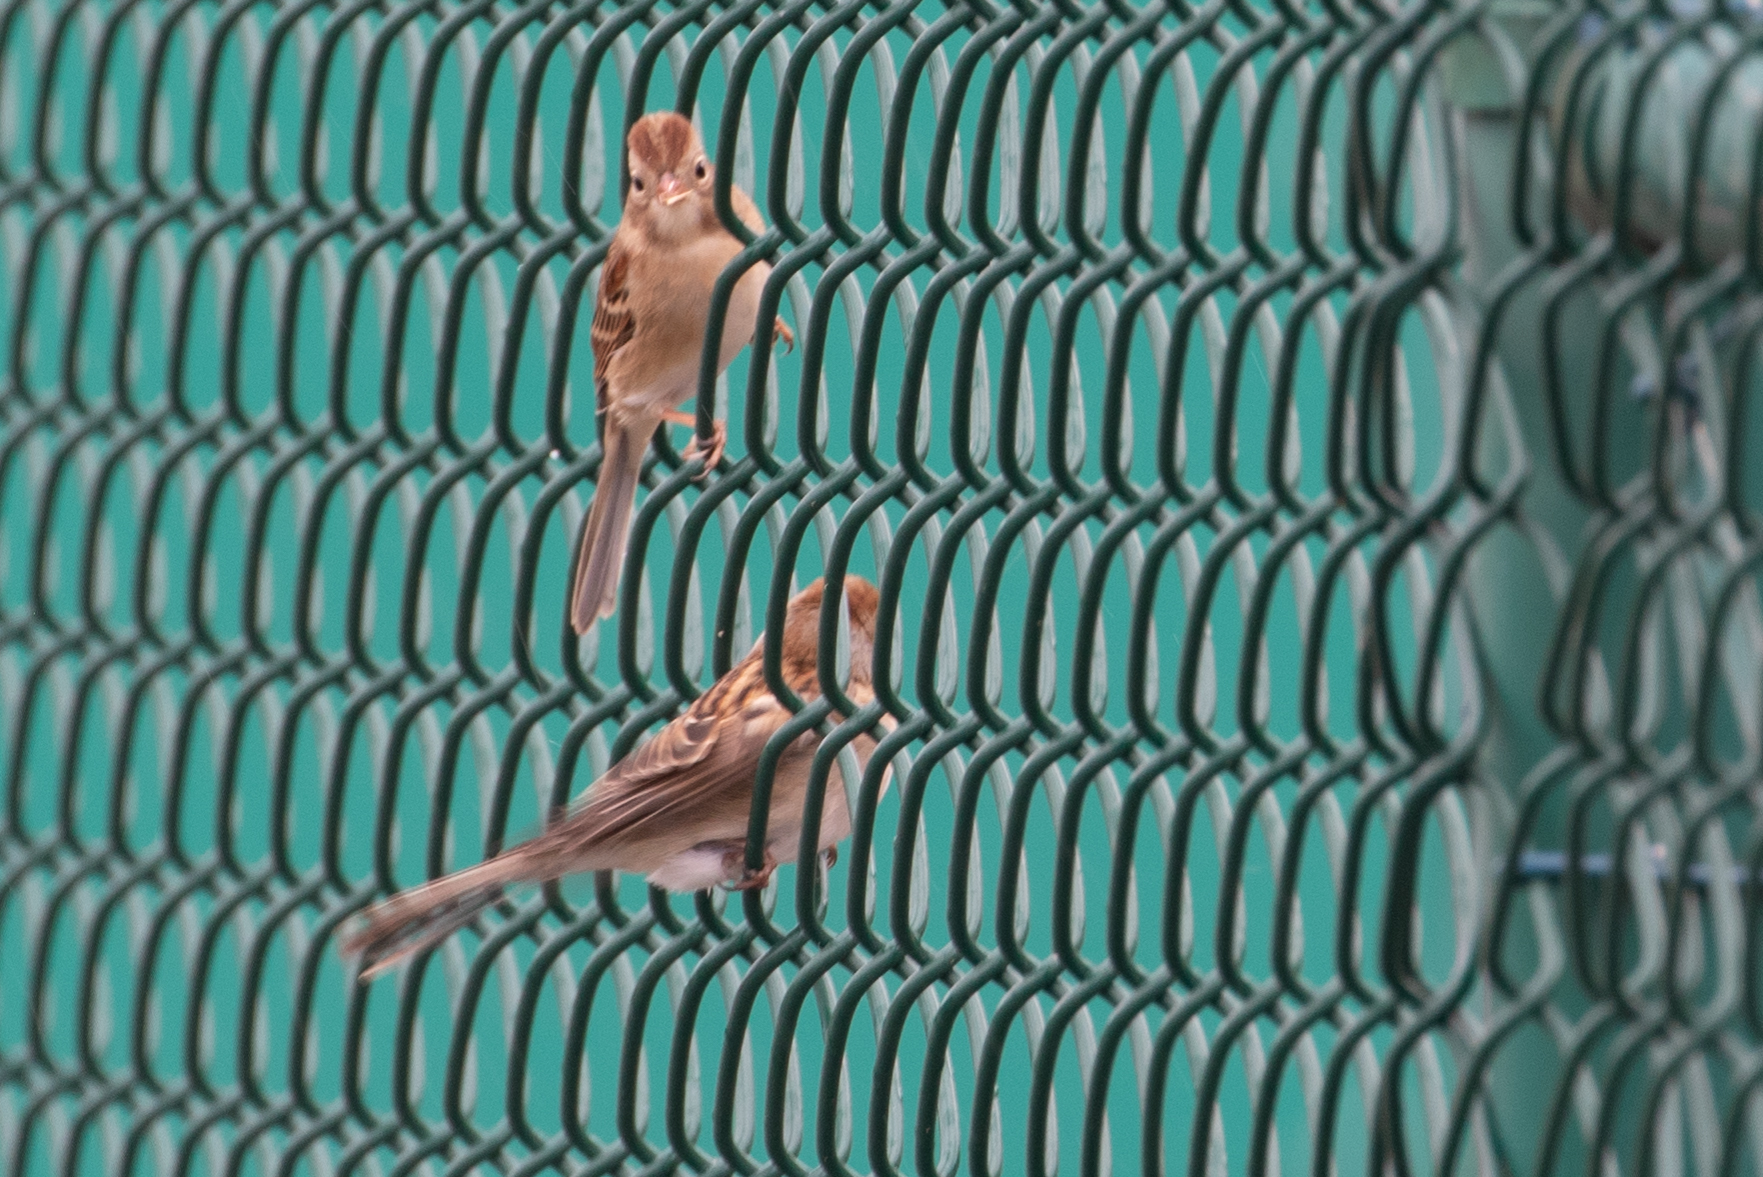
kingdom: Animalia
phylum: Chordata
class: Aves
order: Passeriformes
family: Passerellidae
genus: Spizella
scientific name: Spizella pusilla
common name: Field sparrow
